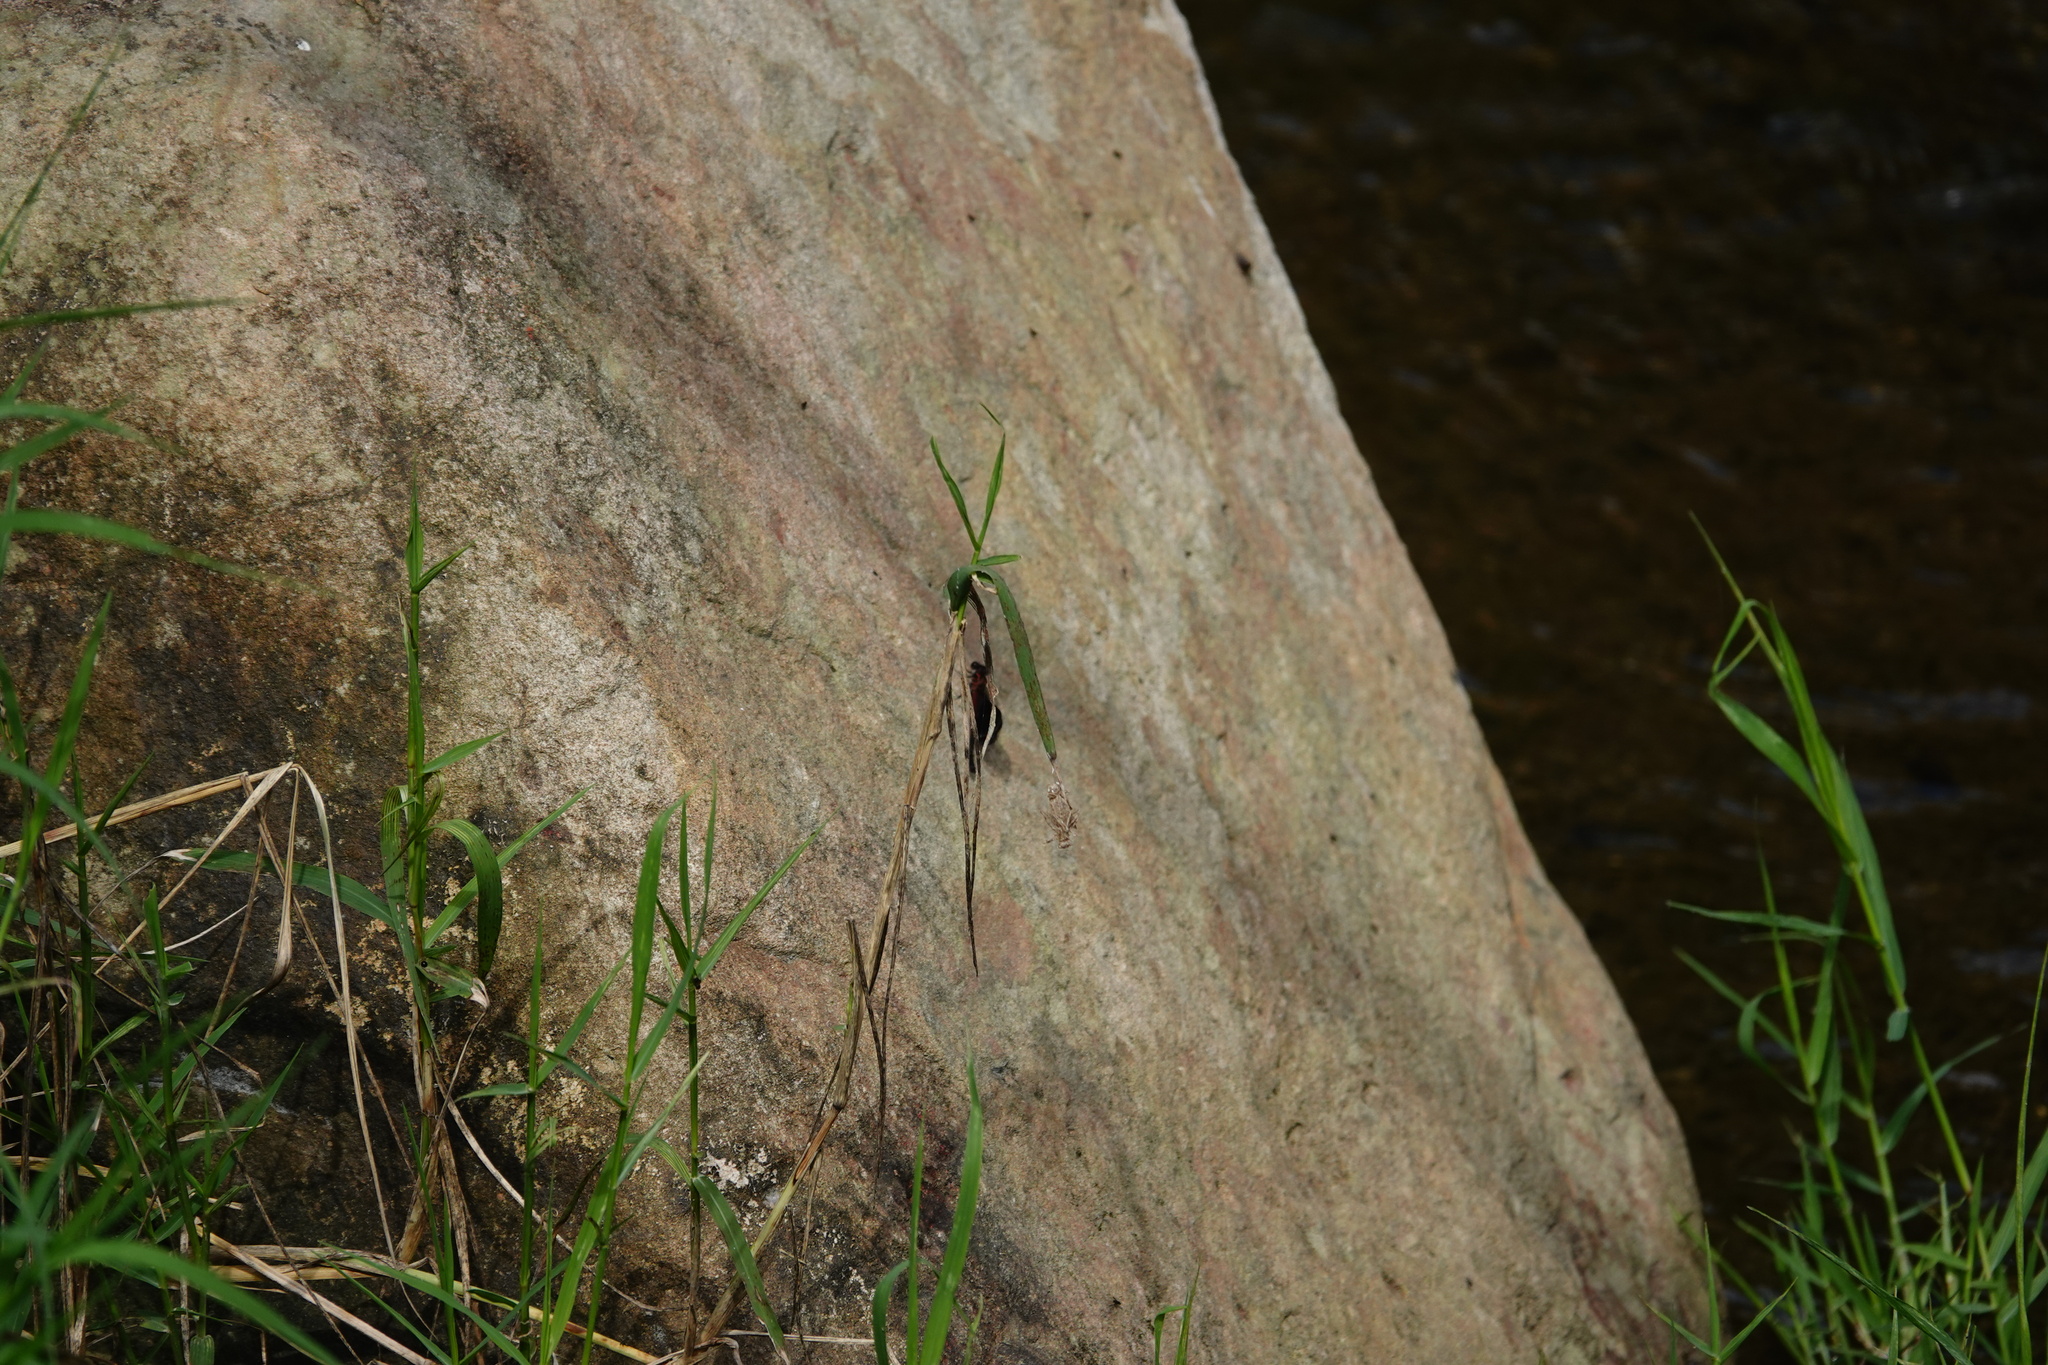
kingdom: Animalia
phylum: Arthropoda
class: Insecta
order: Odonata
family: Euphaeidae
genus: Euphaea
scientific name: Euphaea formosa
